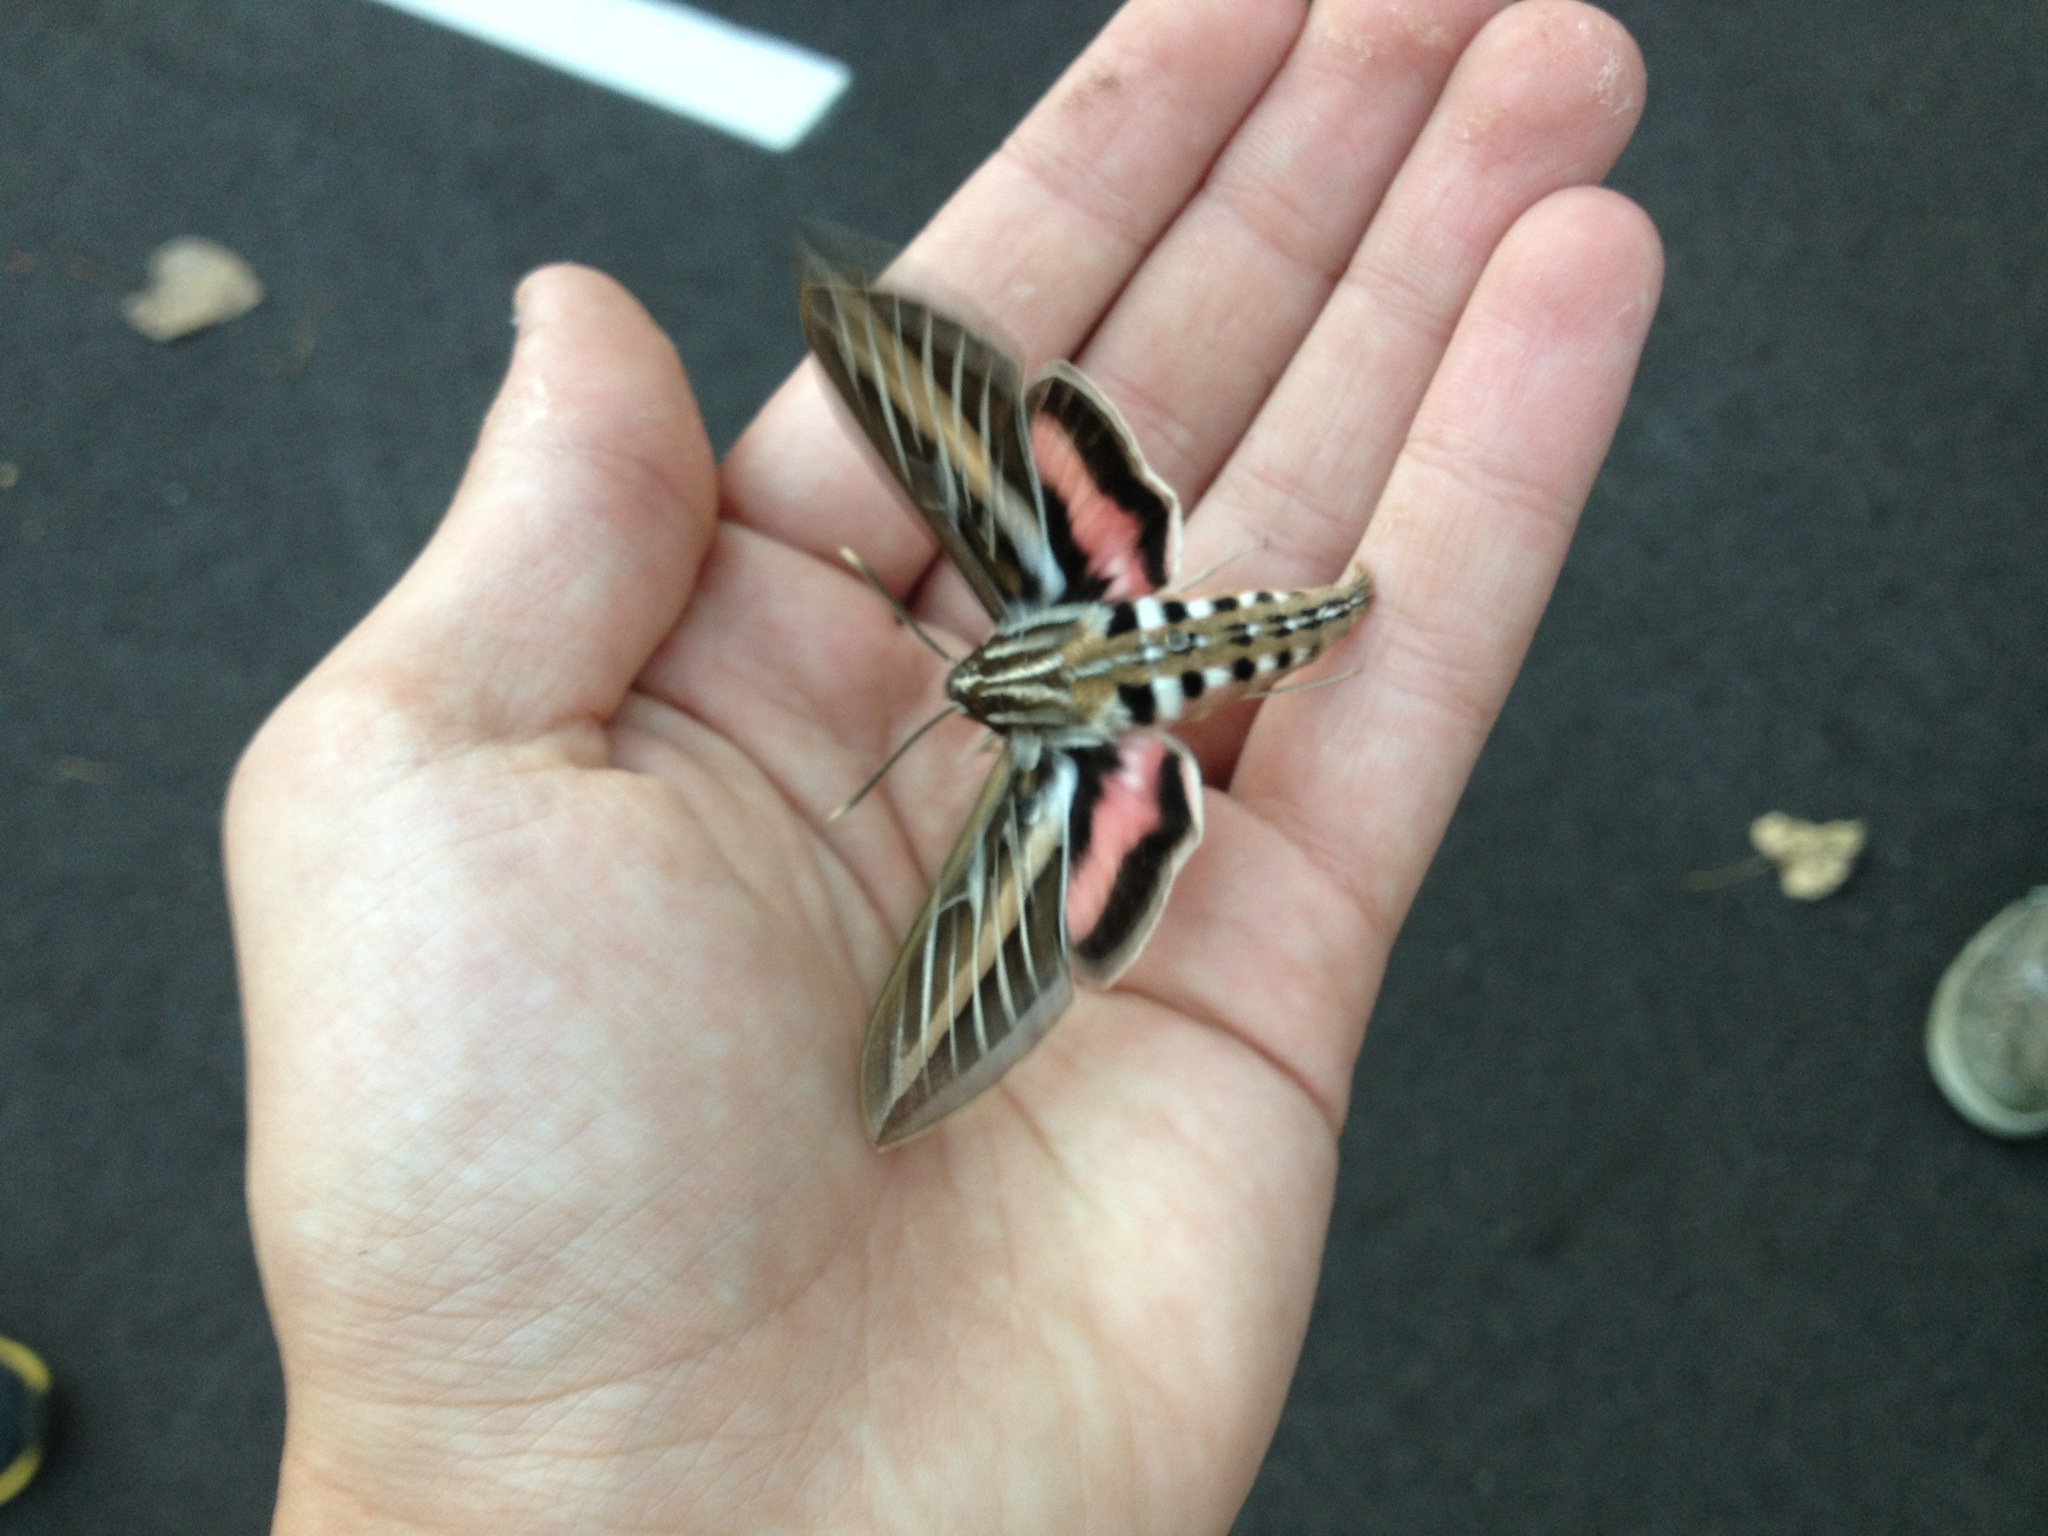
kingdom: Animalia
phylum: Arthropoda
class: Insecta
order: Lepidoptera
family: Sphingidae
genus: Hyles
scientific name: Hyles lineata
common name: White-lined sphinx
